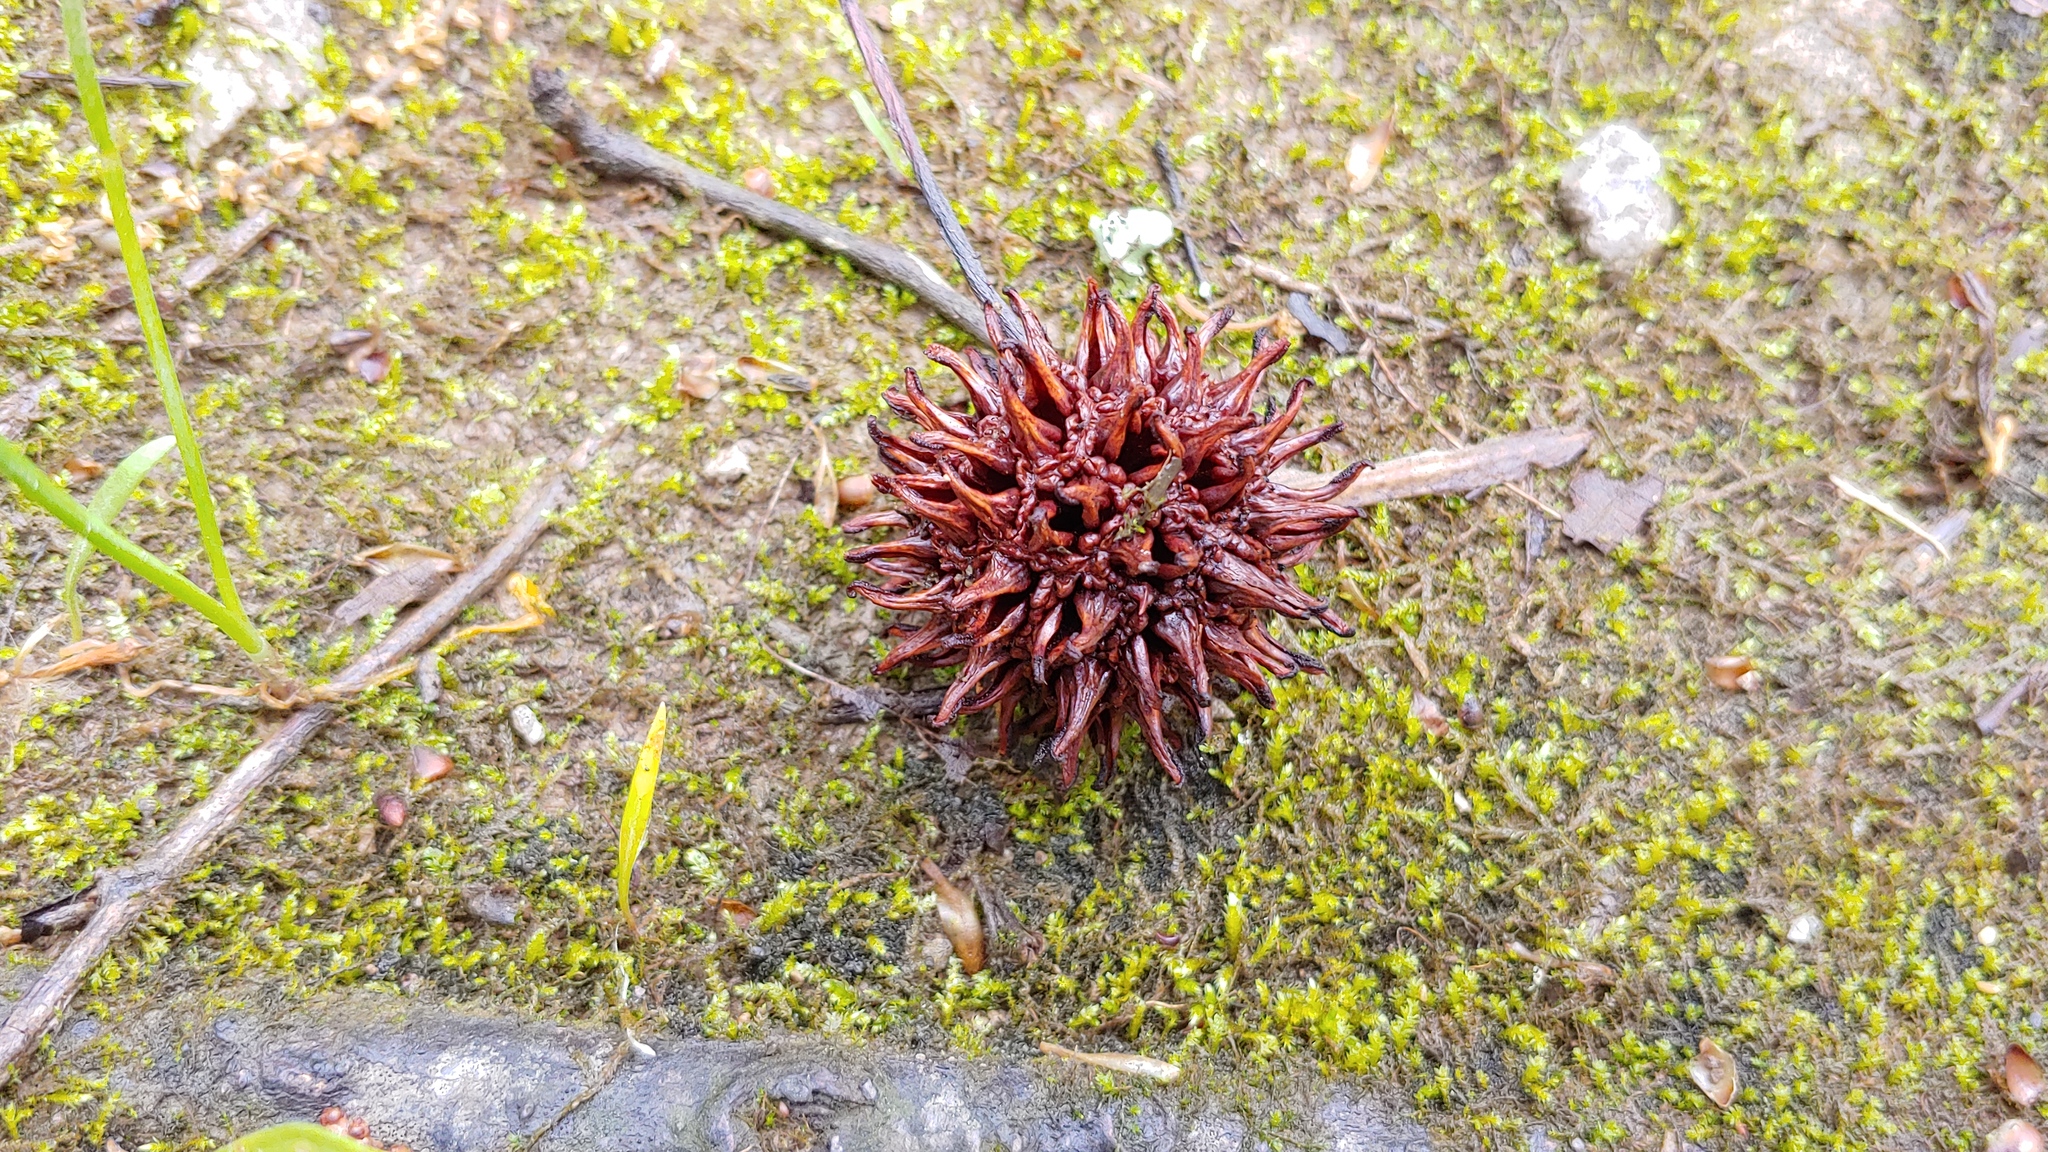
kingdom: Plantae
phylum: Tracheophyta
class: Magnoliopsida
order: Saxifragales
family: Altingiaceae
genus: Liquidambar
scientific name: Liquidambar styraciflua
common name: Sweet gum
